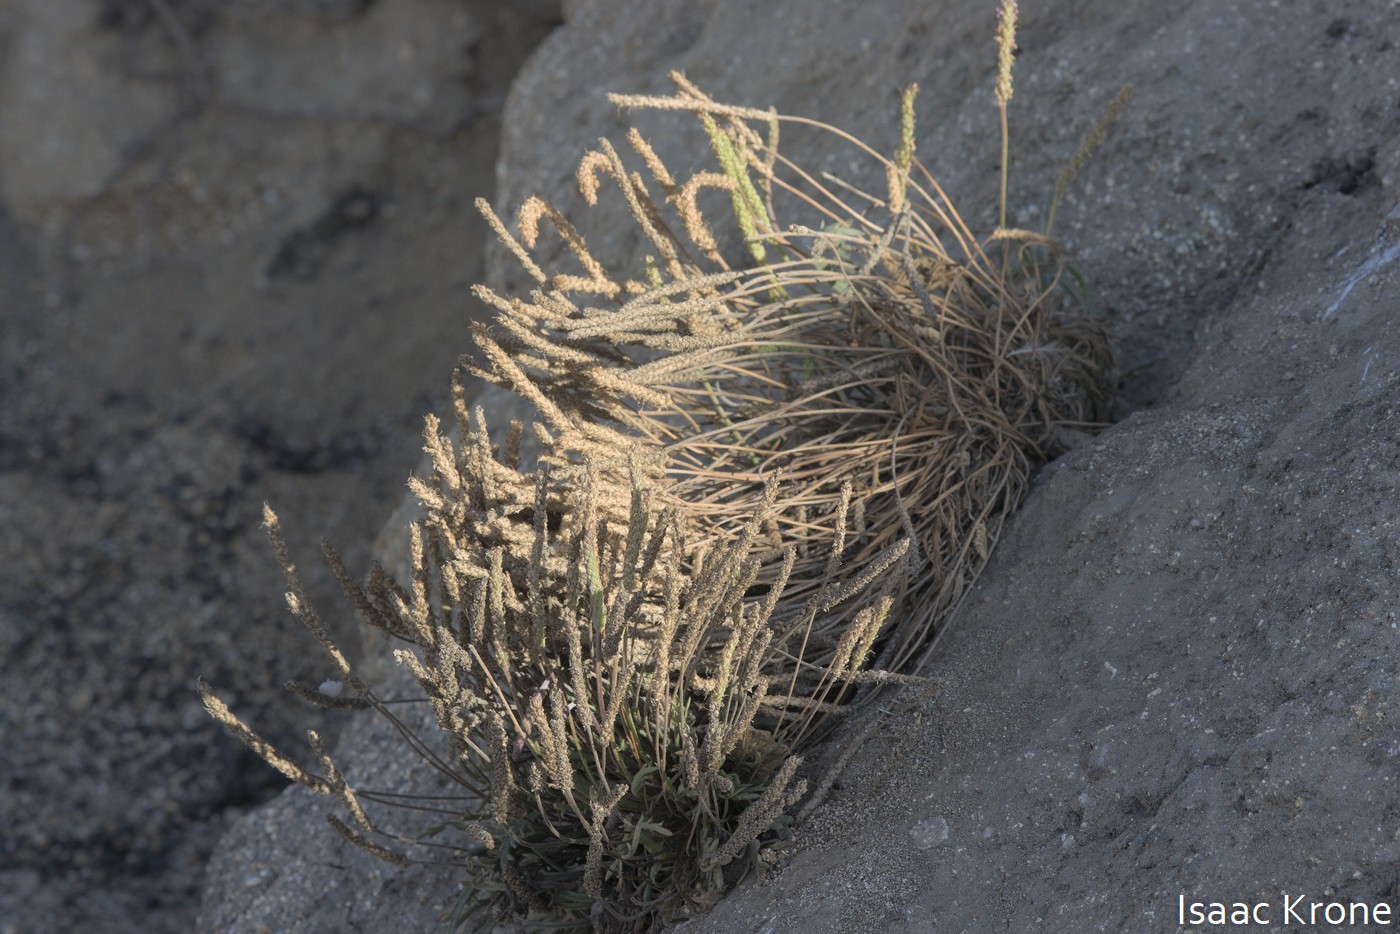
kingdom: Plantae
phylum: Tracheophyta
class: Magnoliopsida
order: Lamiales
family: Plantaginaceae
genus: Plantago
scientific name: Plantago coronopus
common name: Buck's-horn plantain
